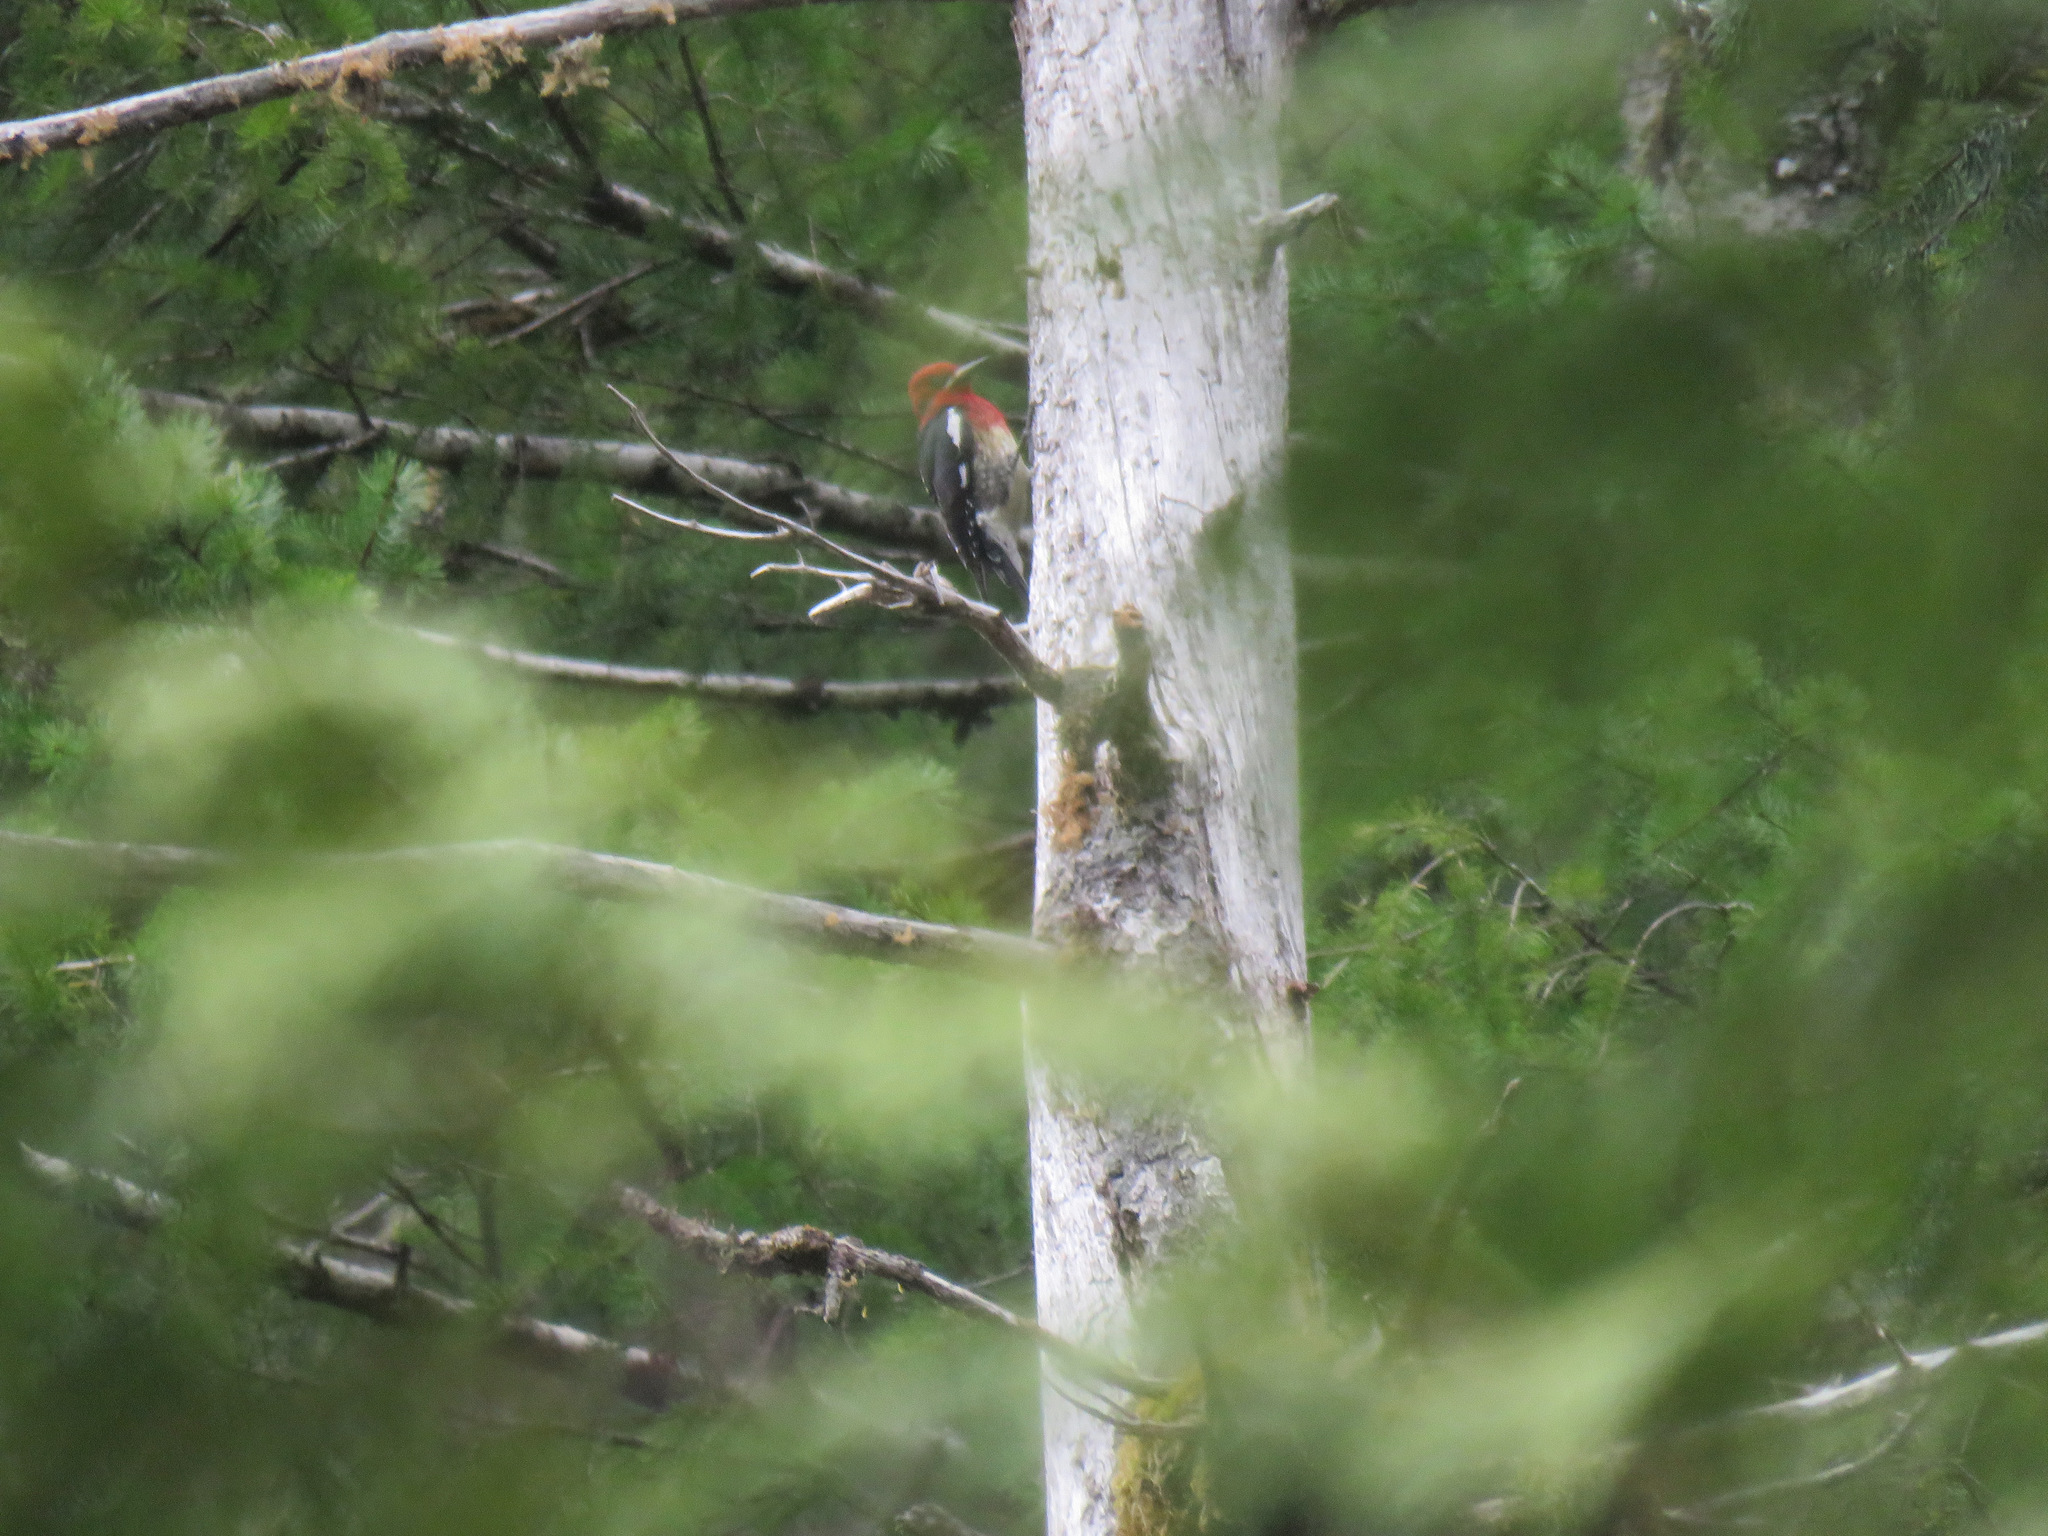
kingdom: Animalia
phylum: Chordata
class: Aves
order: Piciformes
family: Picidae
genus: Sphyrapicus
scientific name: Sphyrapicus ruber
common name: Red-breasted sapsucker
